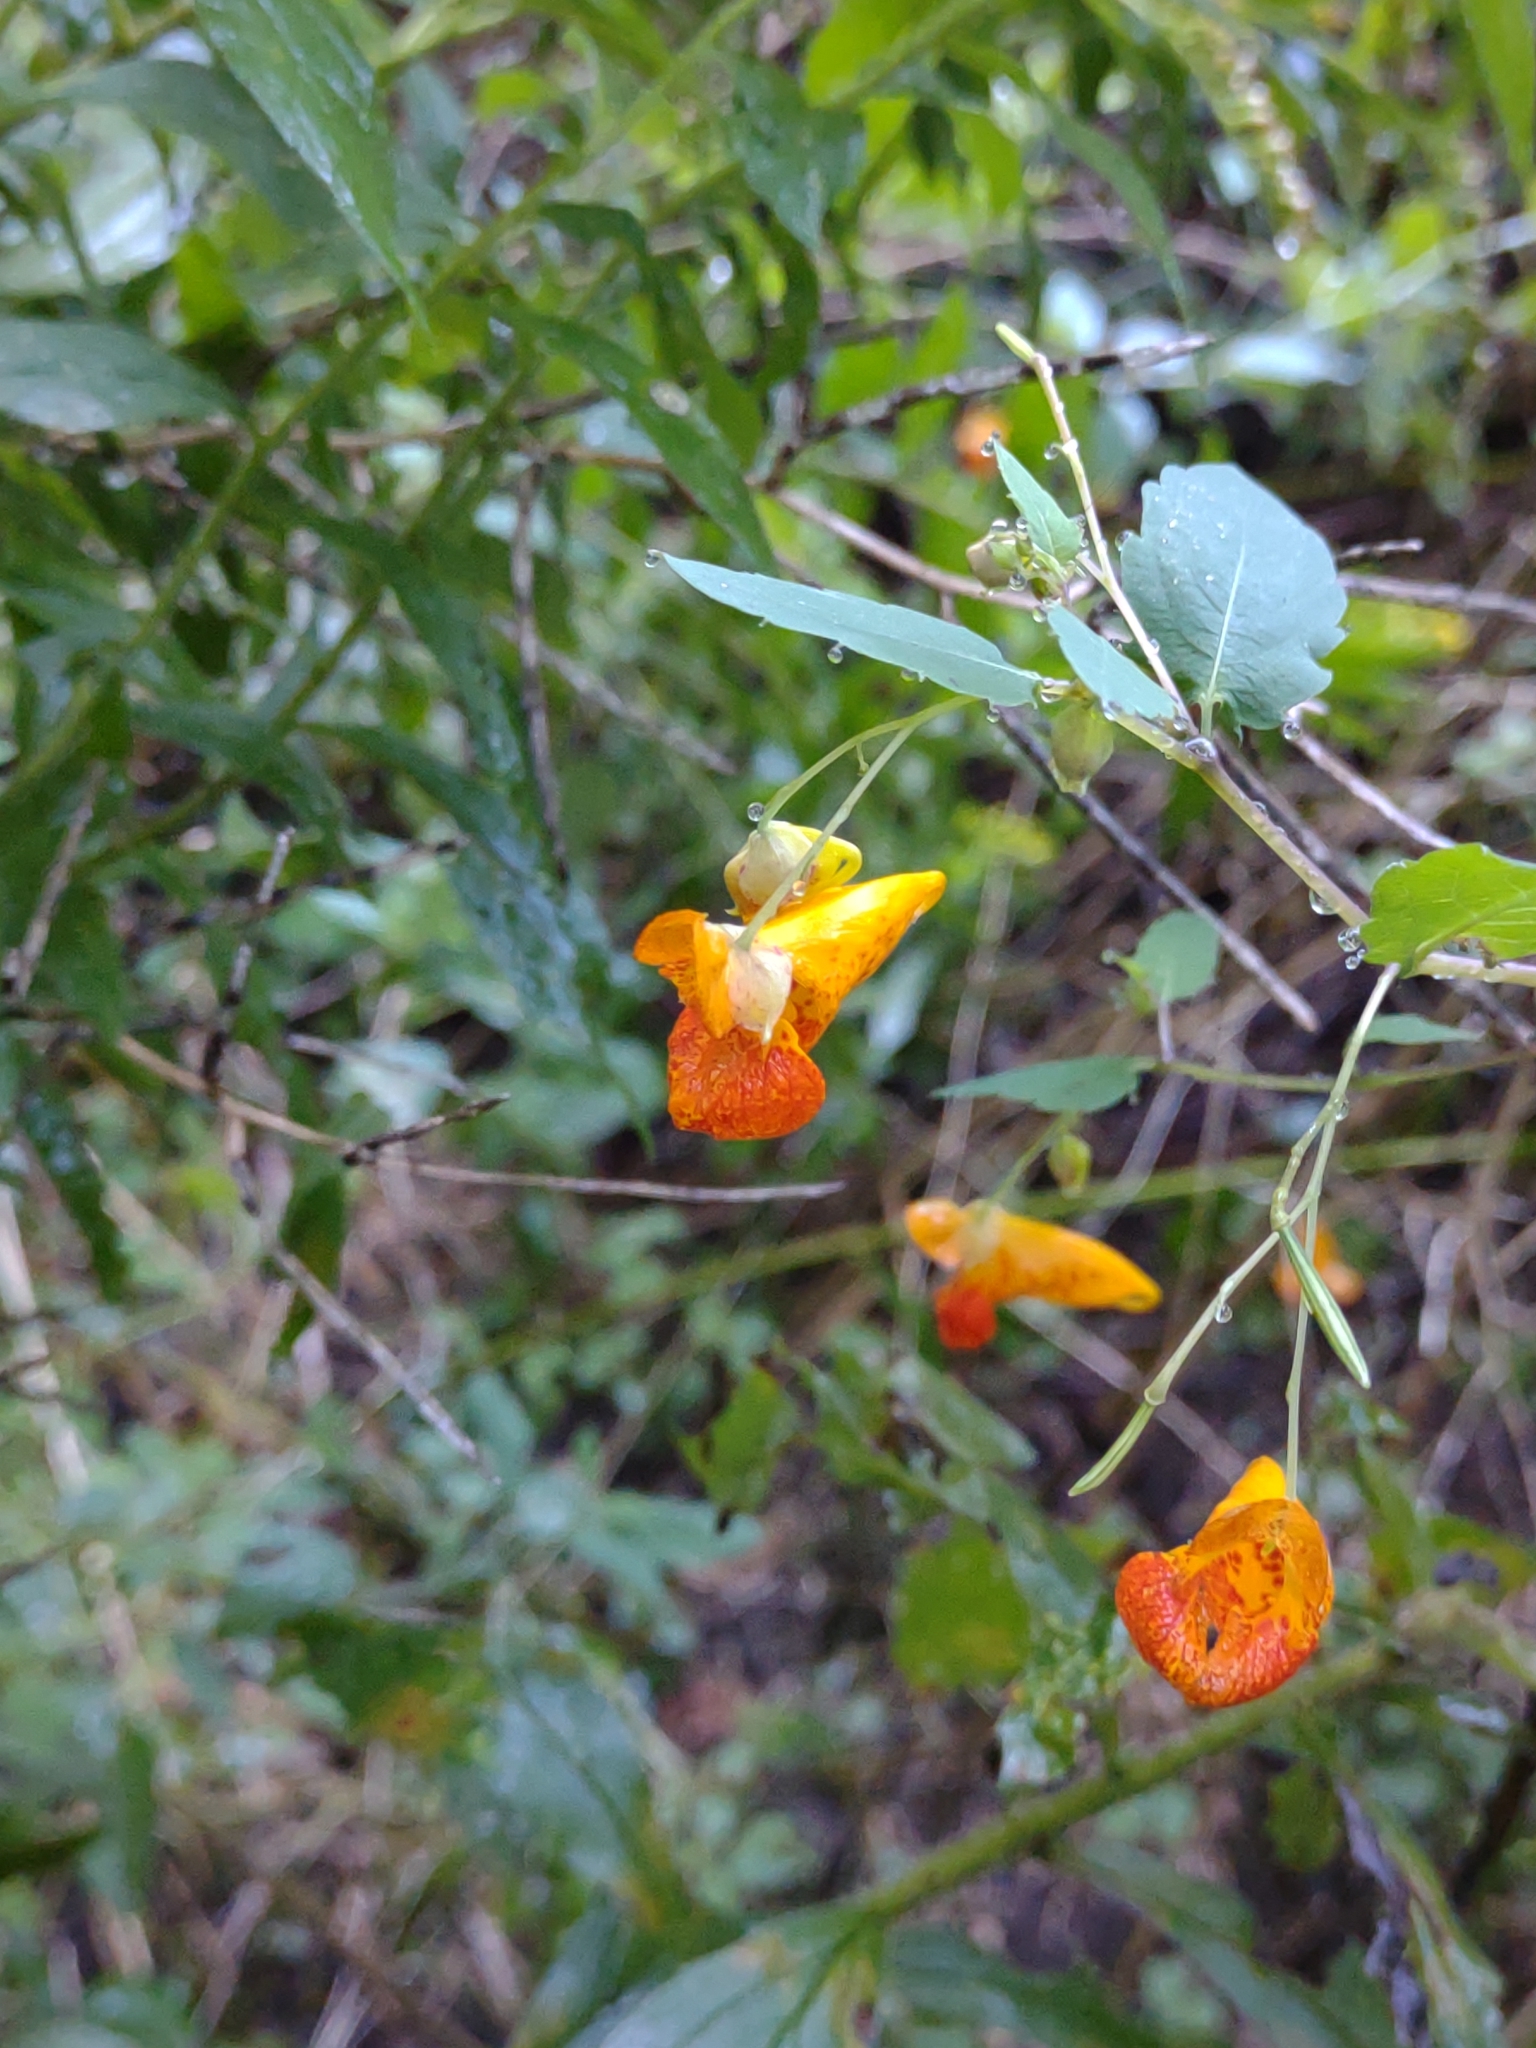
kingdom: Plantae
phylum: Tracheophyta
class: Magnoliopsida
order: Ericales
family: Balsaminaceae
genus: Impatiens
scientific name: Impatiens capensis
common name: Orange balsam
